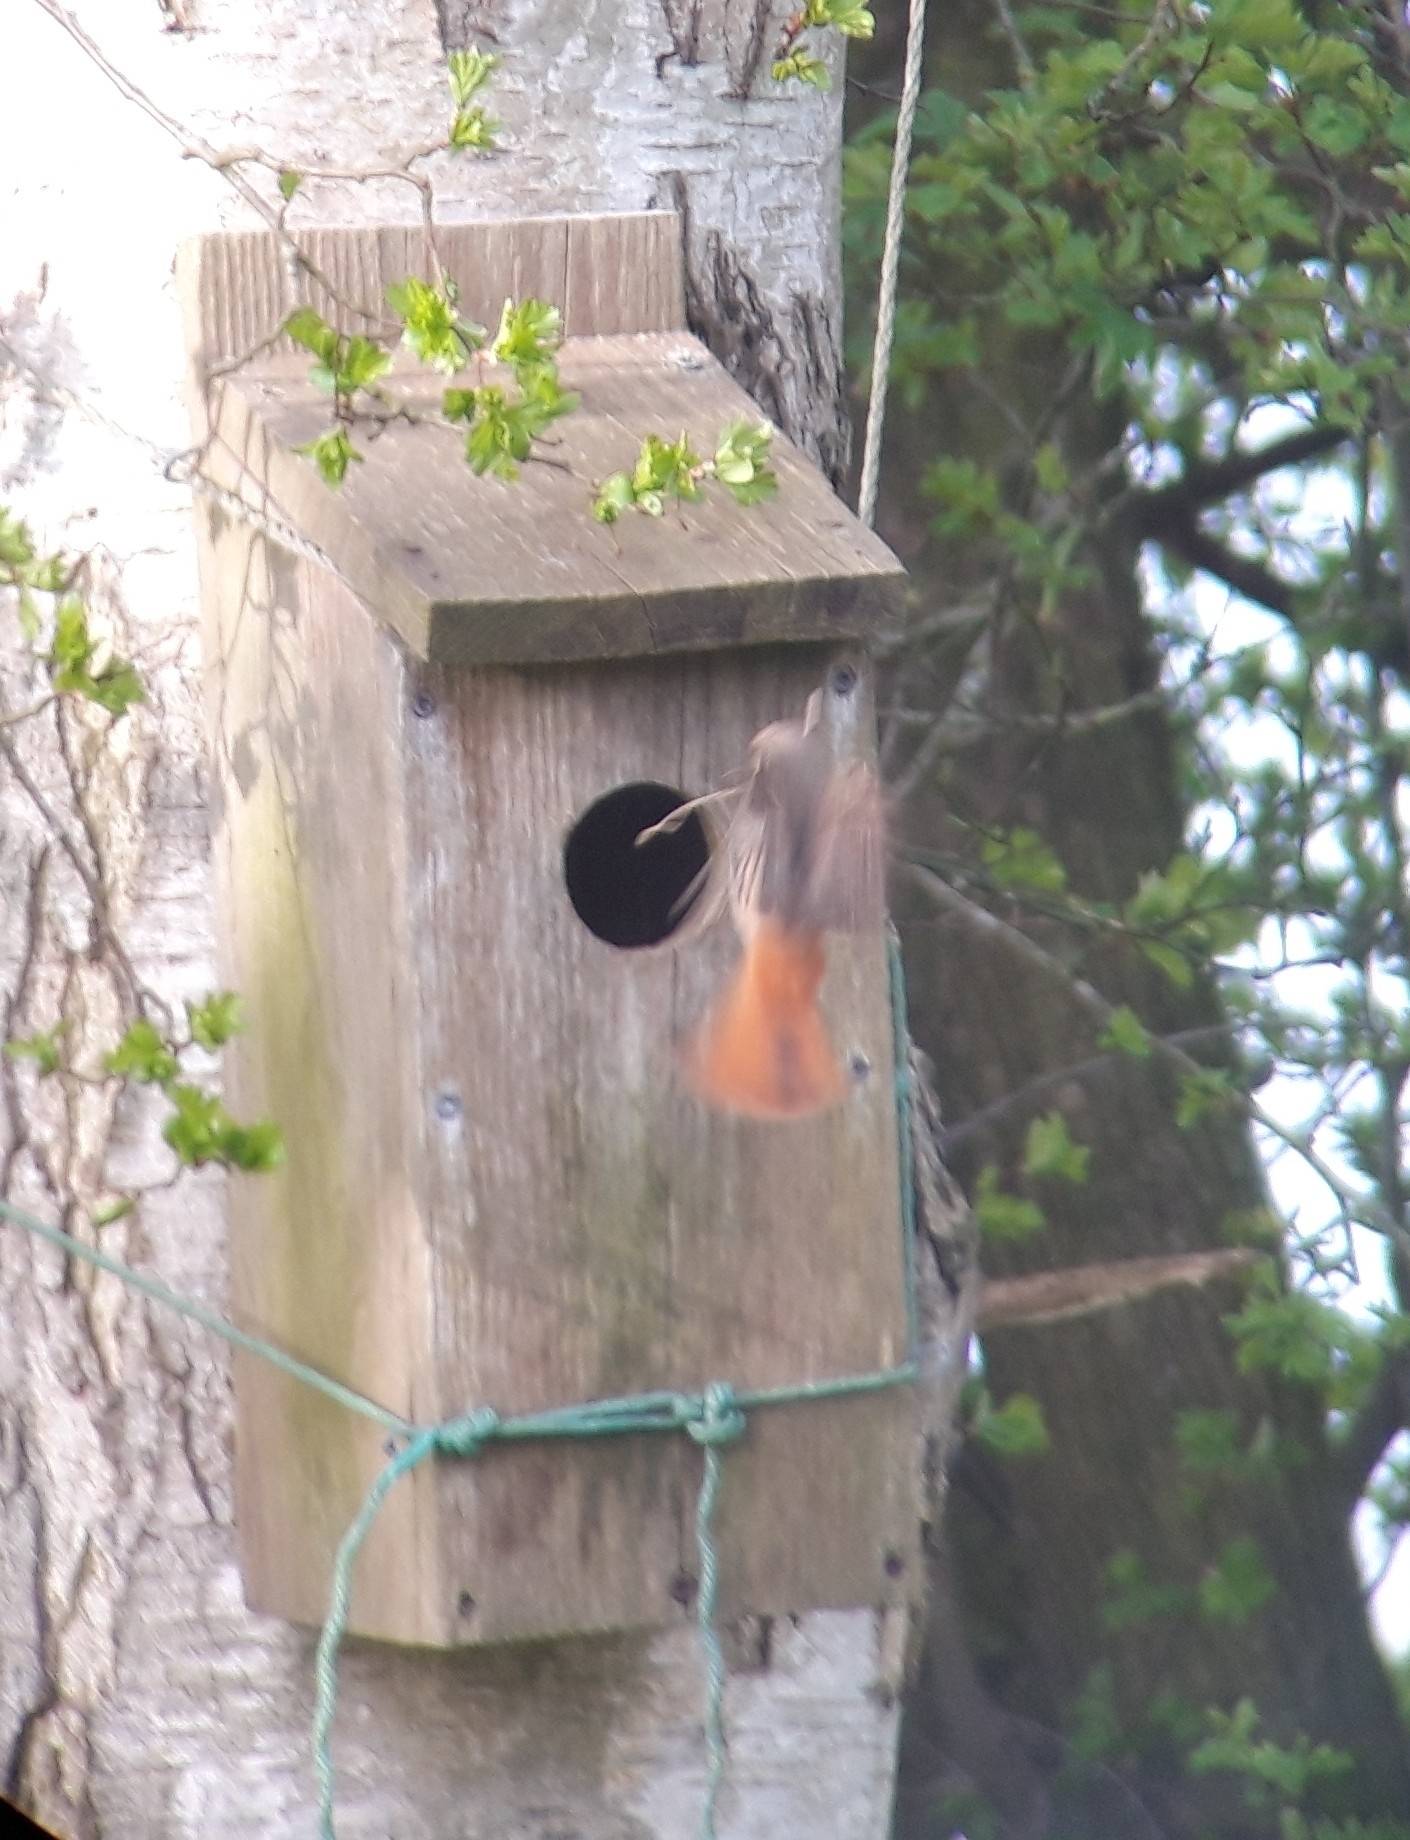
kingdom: Animalia
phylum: Chordata
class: Aves
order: Passeriformes
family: Muscicapidae
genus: Phoenicurus
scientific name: Phoenicurus phoenicurus
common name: Common redstart
